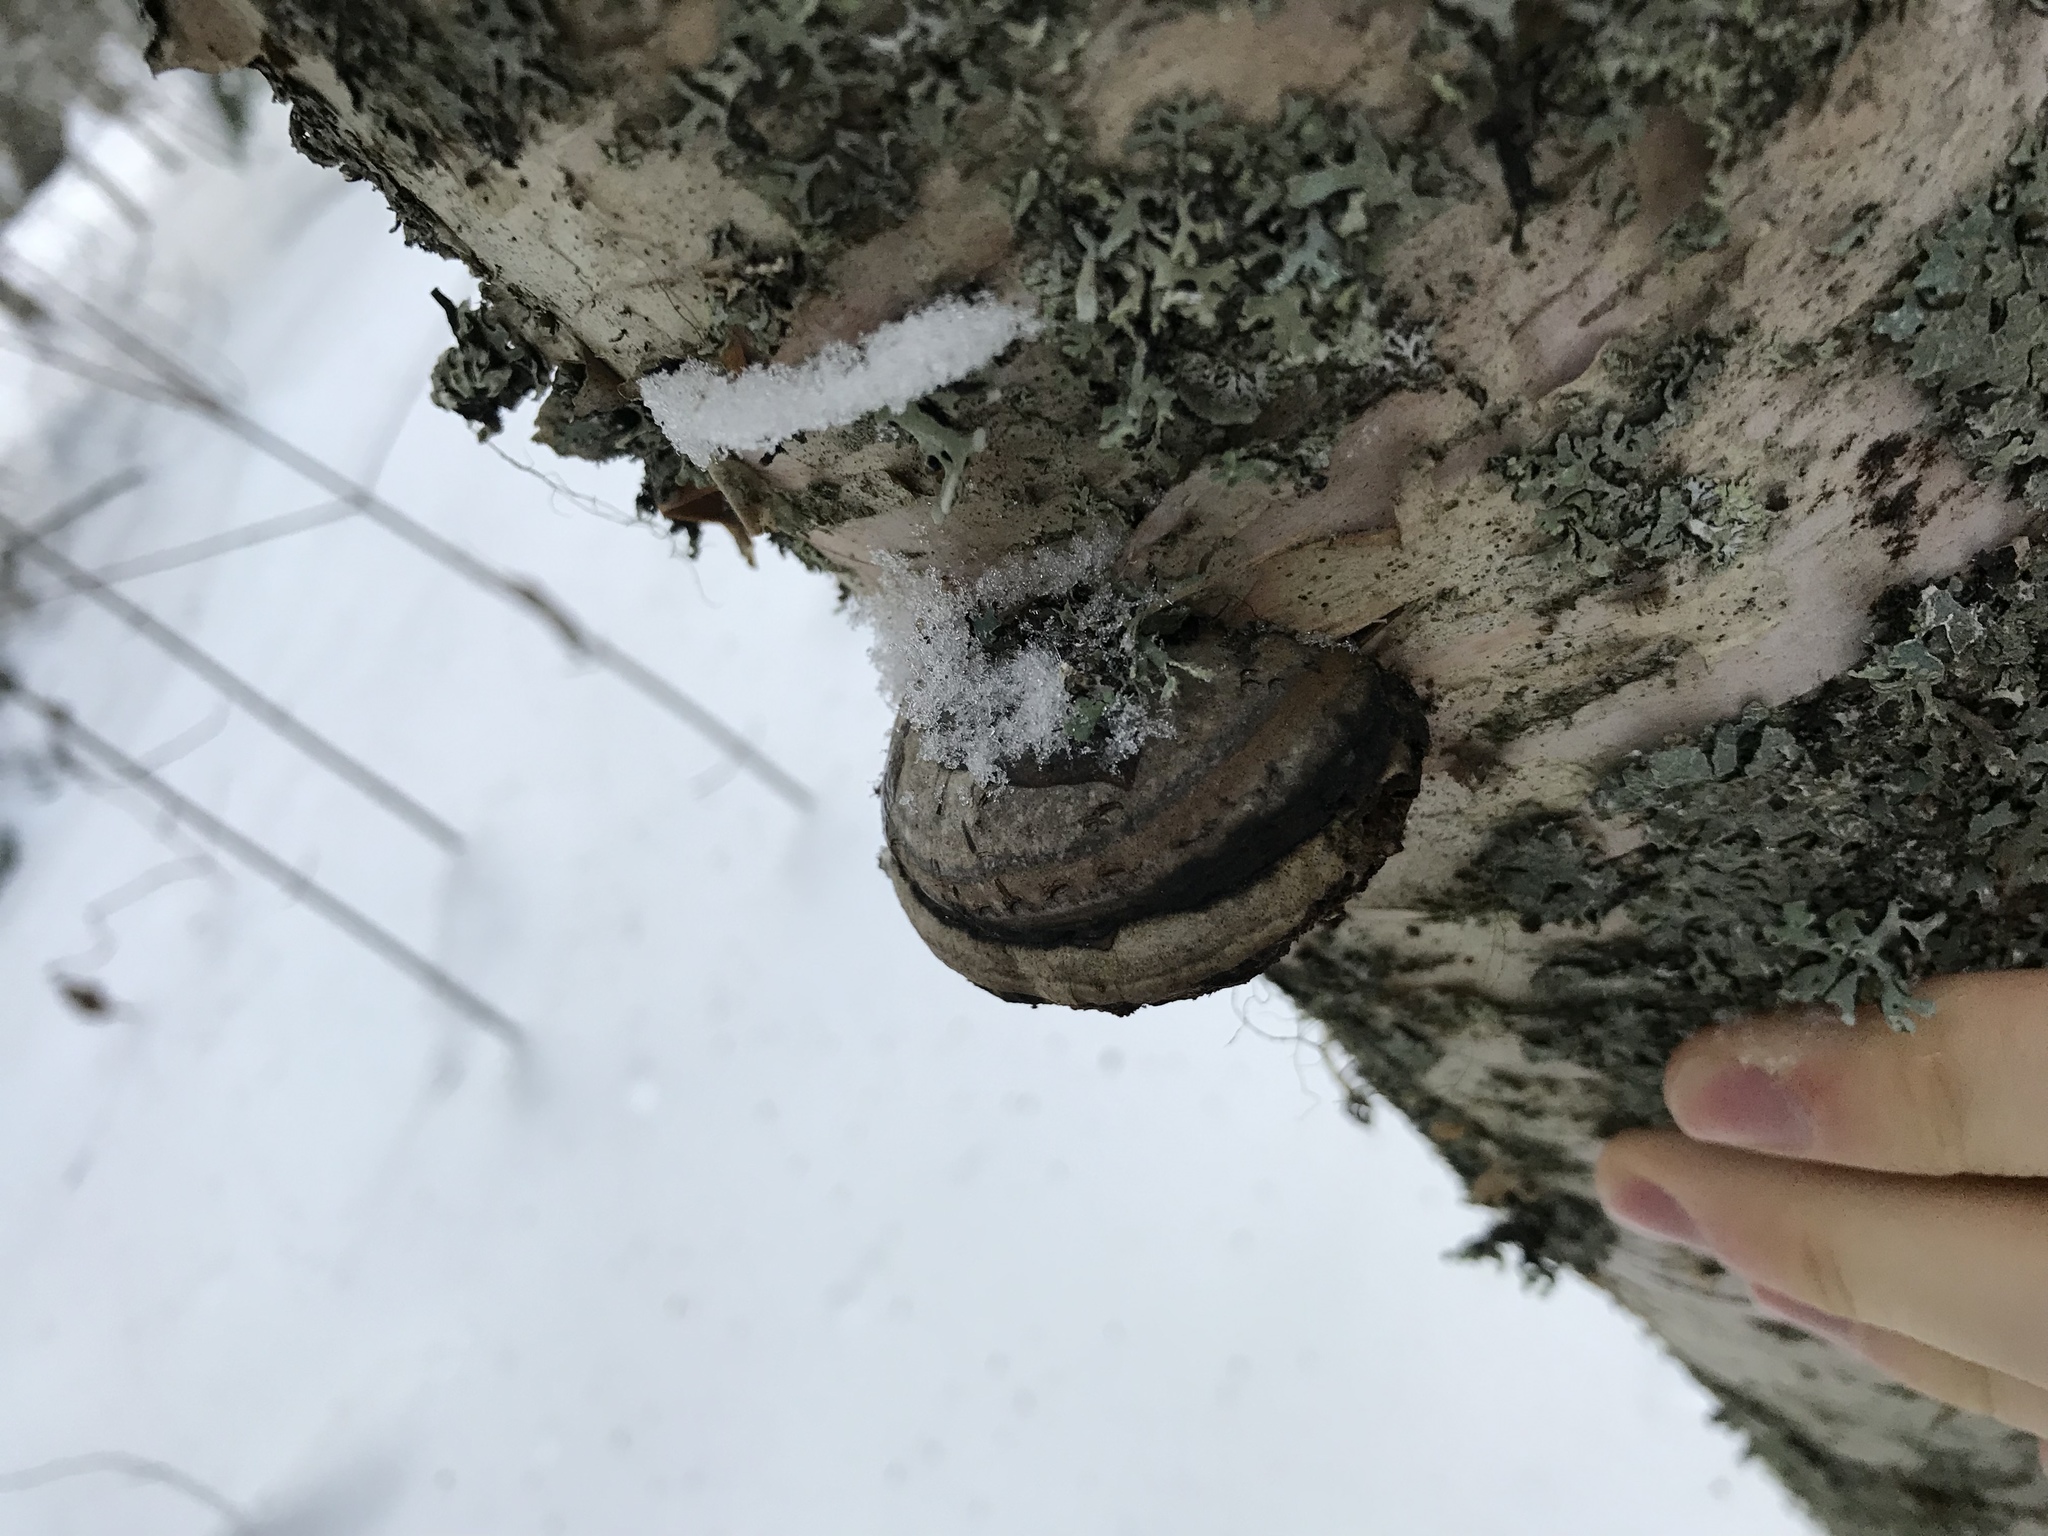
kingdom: Fungi
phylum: Basidiomycota
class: Agaricomycetes
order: Polyporales
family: Fomitopsidaceae
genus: Fomitopsis
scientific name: Fomitopsis betulina
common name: Birch polypore
